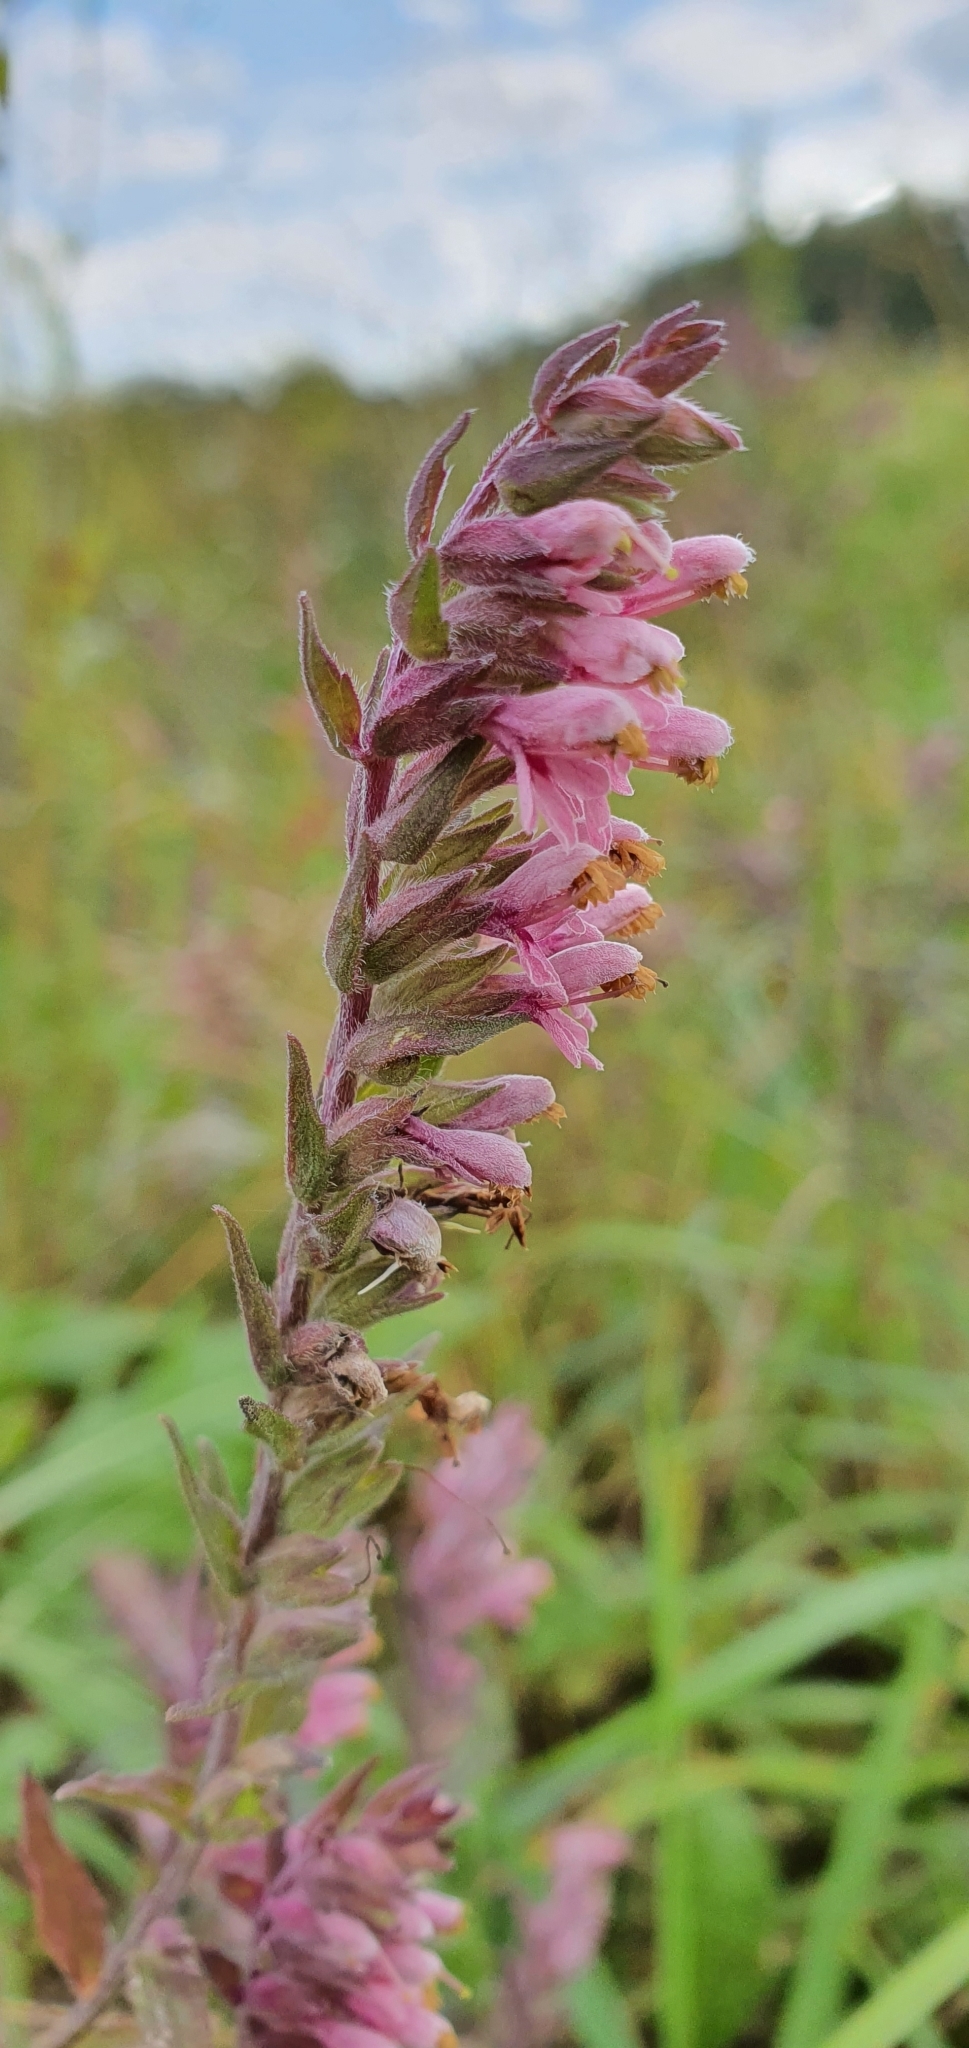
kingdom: Plantae
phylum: Tracheophyta
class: Magnoliopsida
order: Lamiales
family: Orobanchaceae
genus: Odontites
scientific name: Odontites vulgaris
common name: Broomrape
